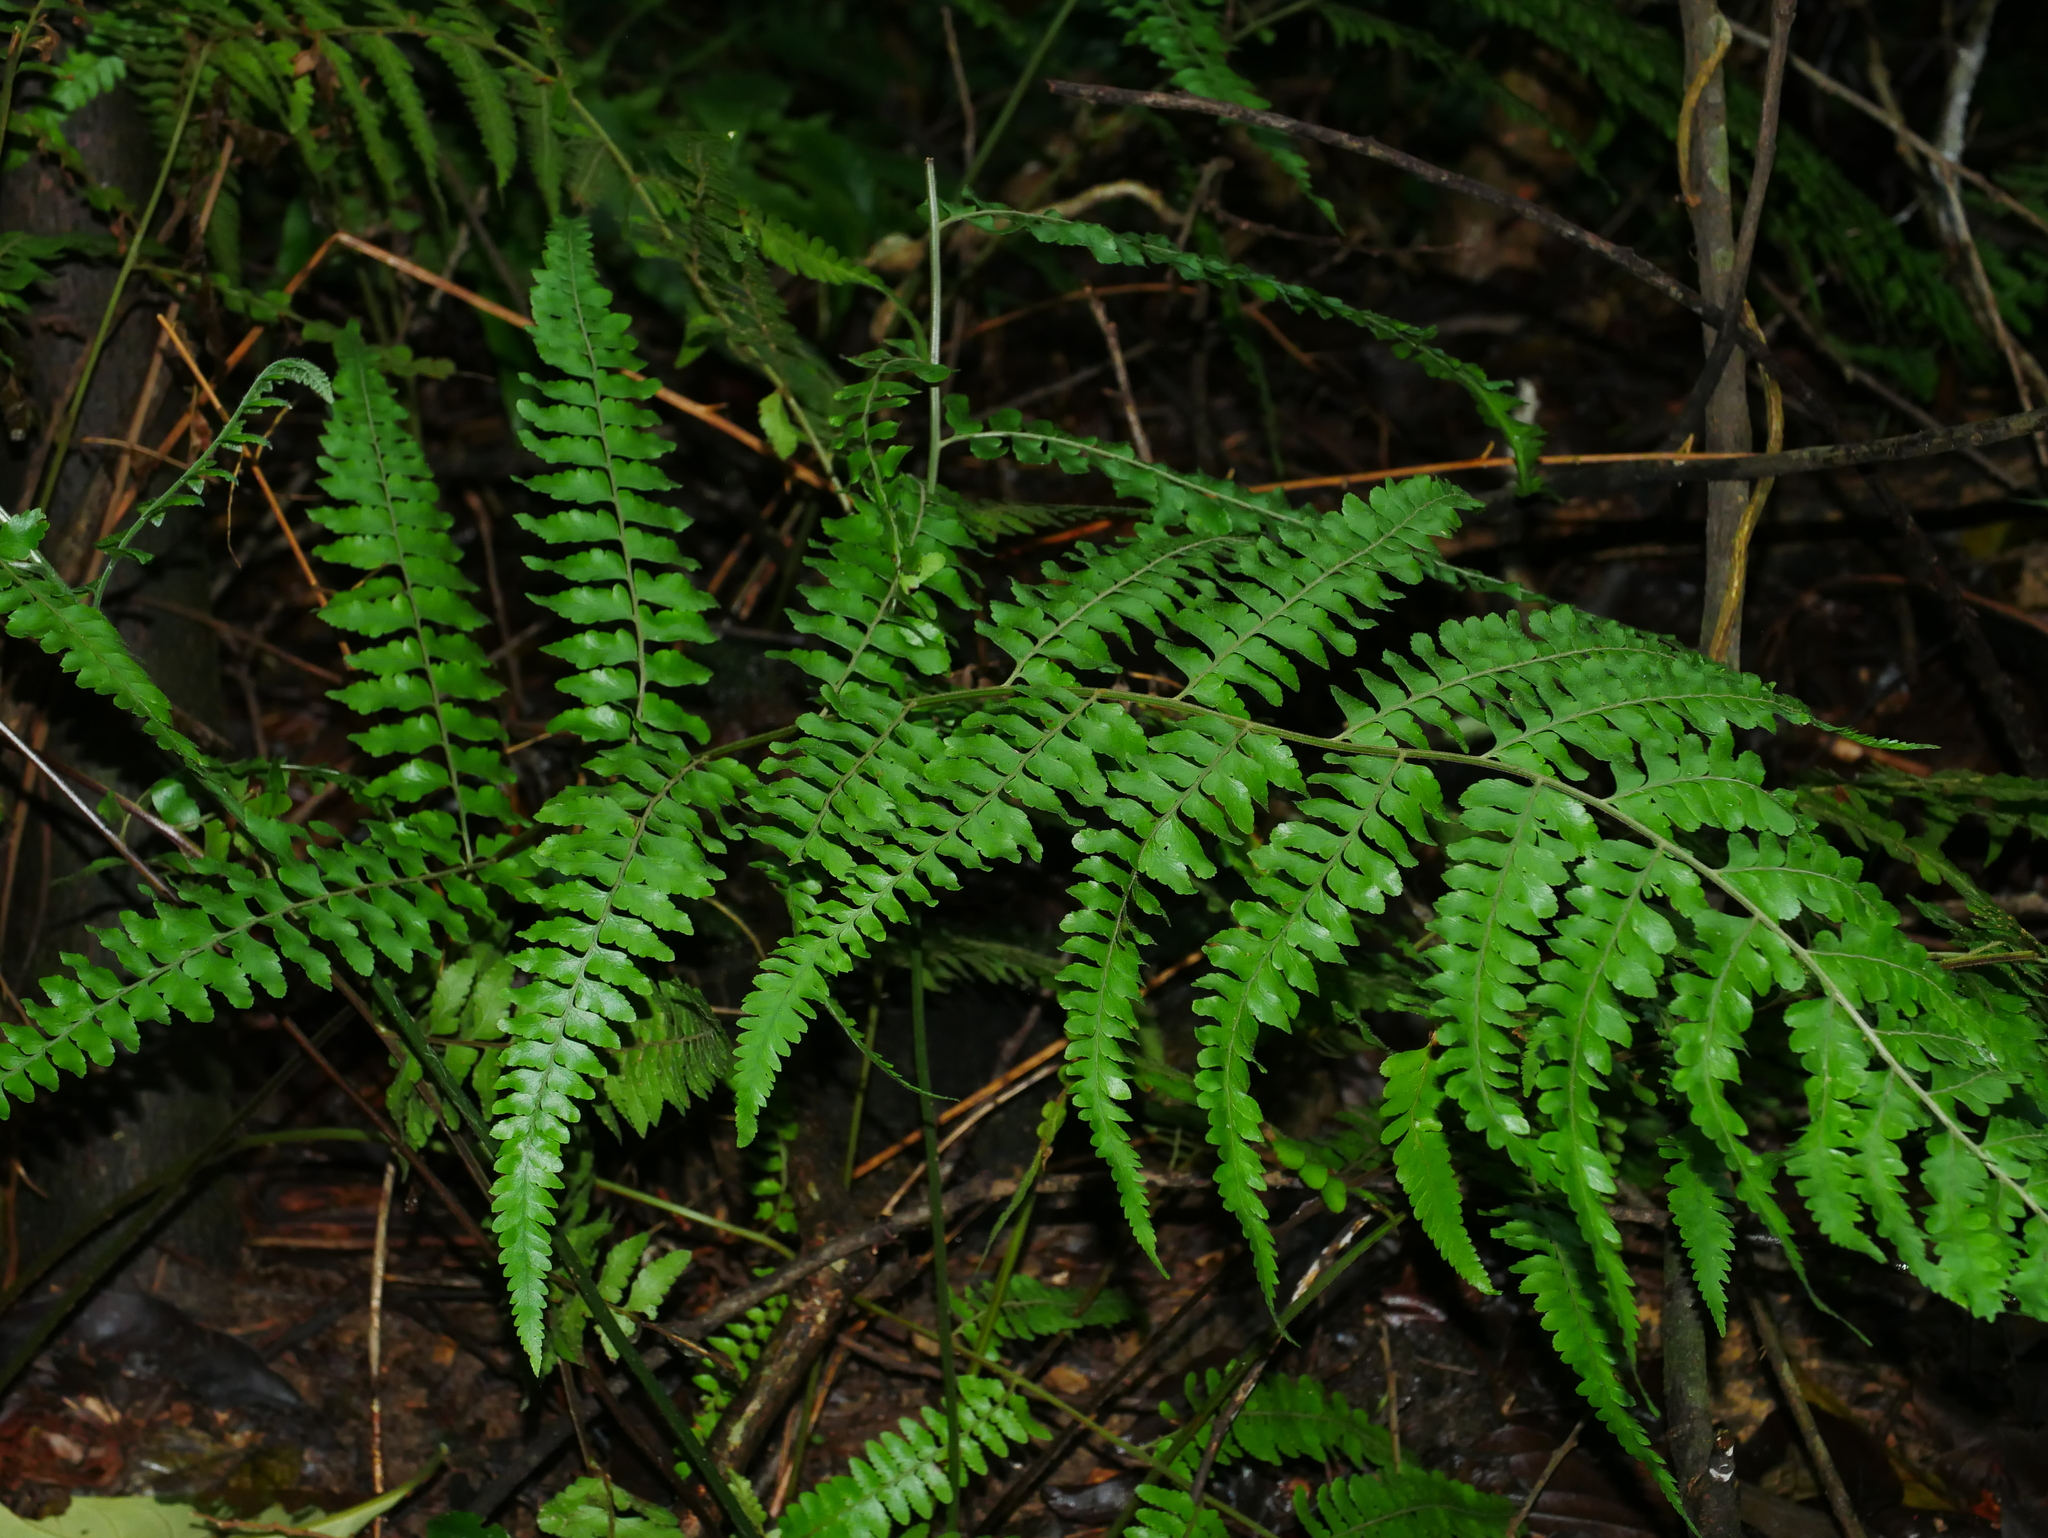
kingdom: Plantae
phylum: Tracheophyta
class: Polypodiopsida
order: Polypodiales
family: Dennstaedtiaceae
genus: Microlepia
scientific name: Microlepia krameri
